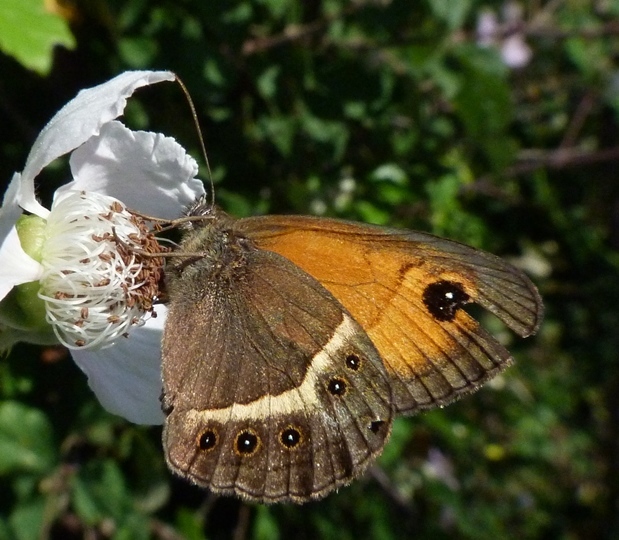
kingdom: Animalia
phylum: Arthropoda
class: Insecta
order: Lepidoptera
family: Nymphalidae
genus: Pyronia
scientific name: Pyronia bathseba
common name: Spanish gatekeeper
